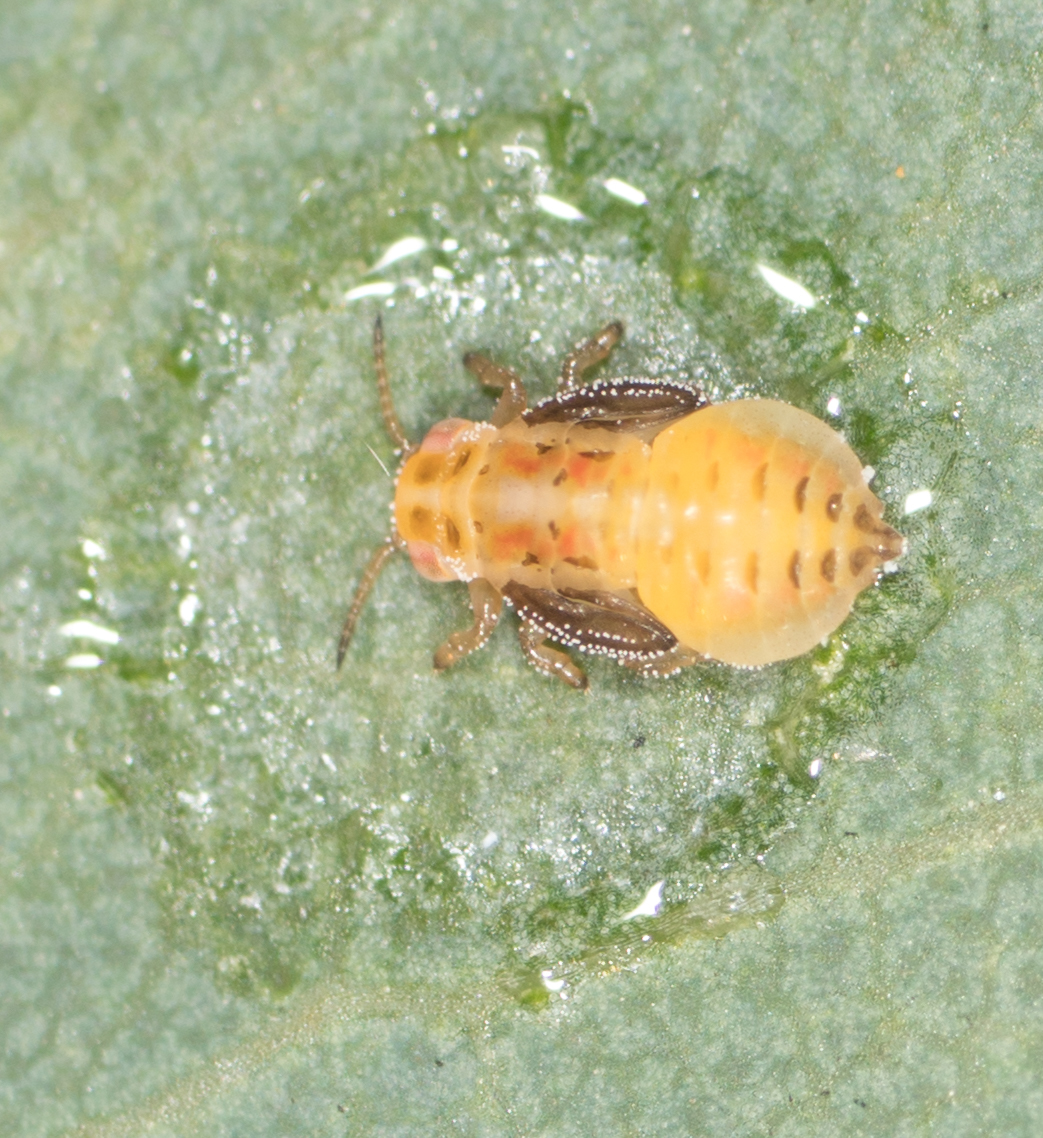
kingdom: Animalia
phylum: Arthropoda
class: Insecta
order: Hemiptera
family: Aphalaridae
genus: Glycaspis
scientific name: Glycaspis brimblecombei
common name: Red gum lerp psyllid
